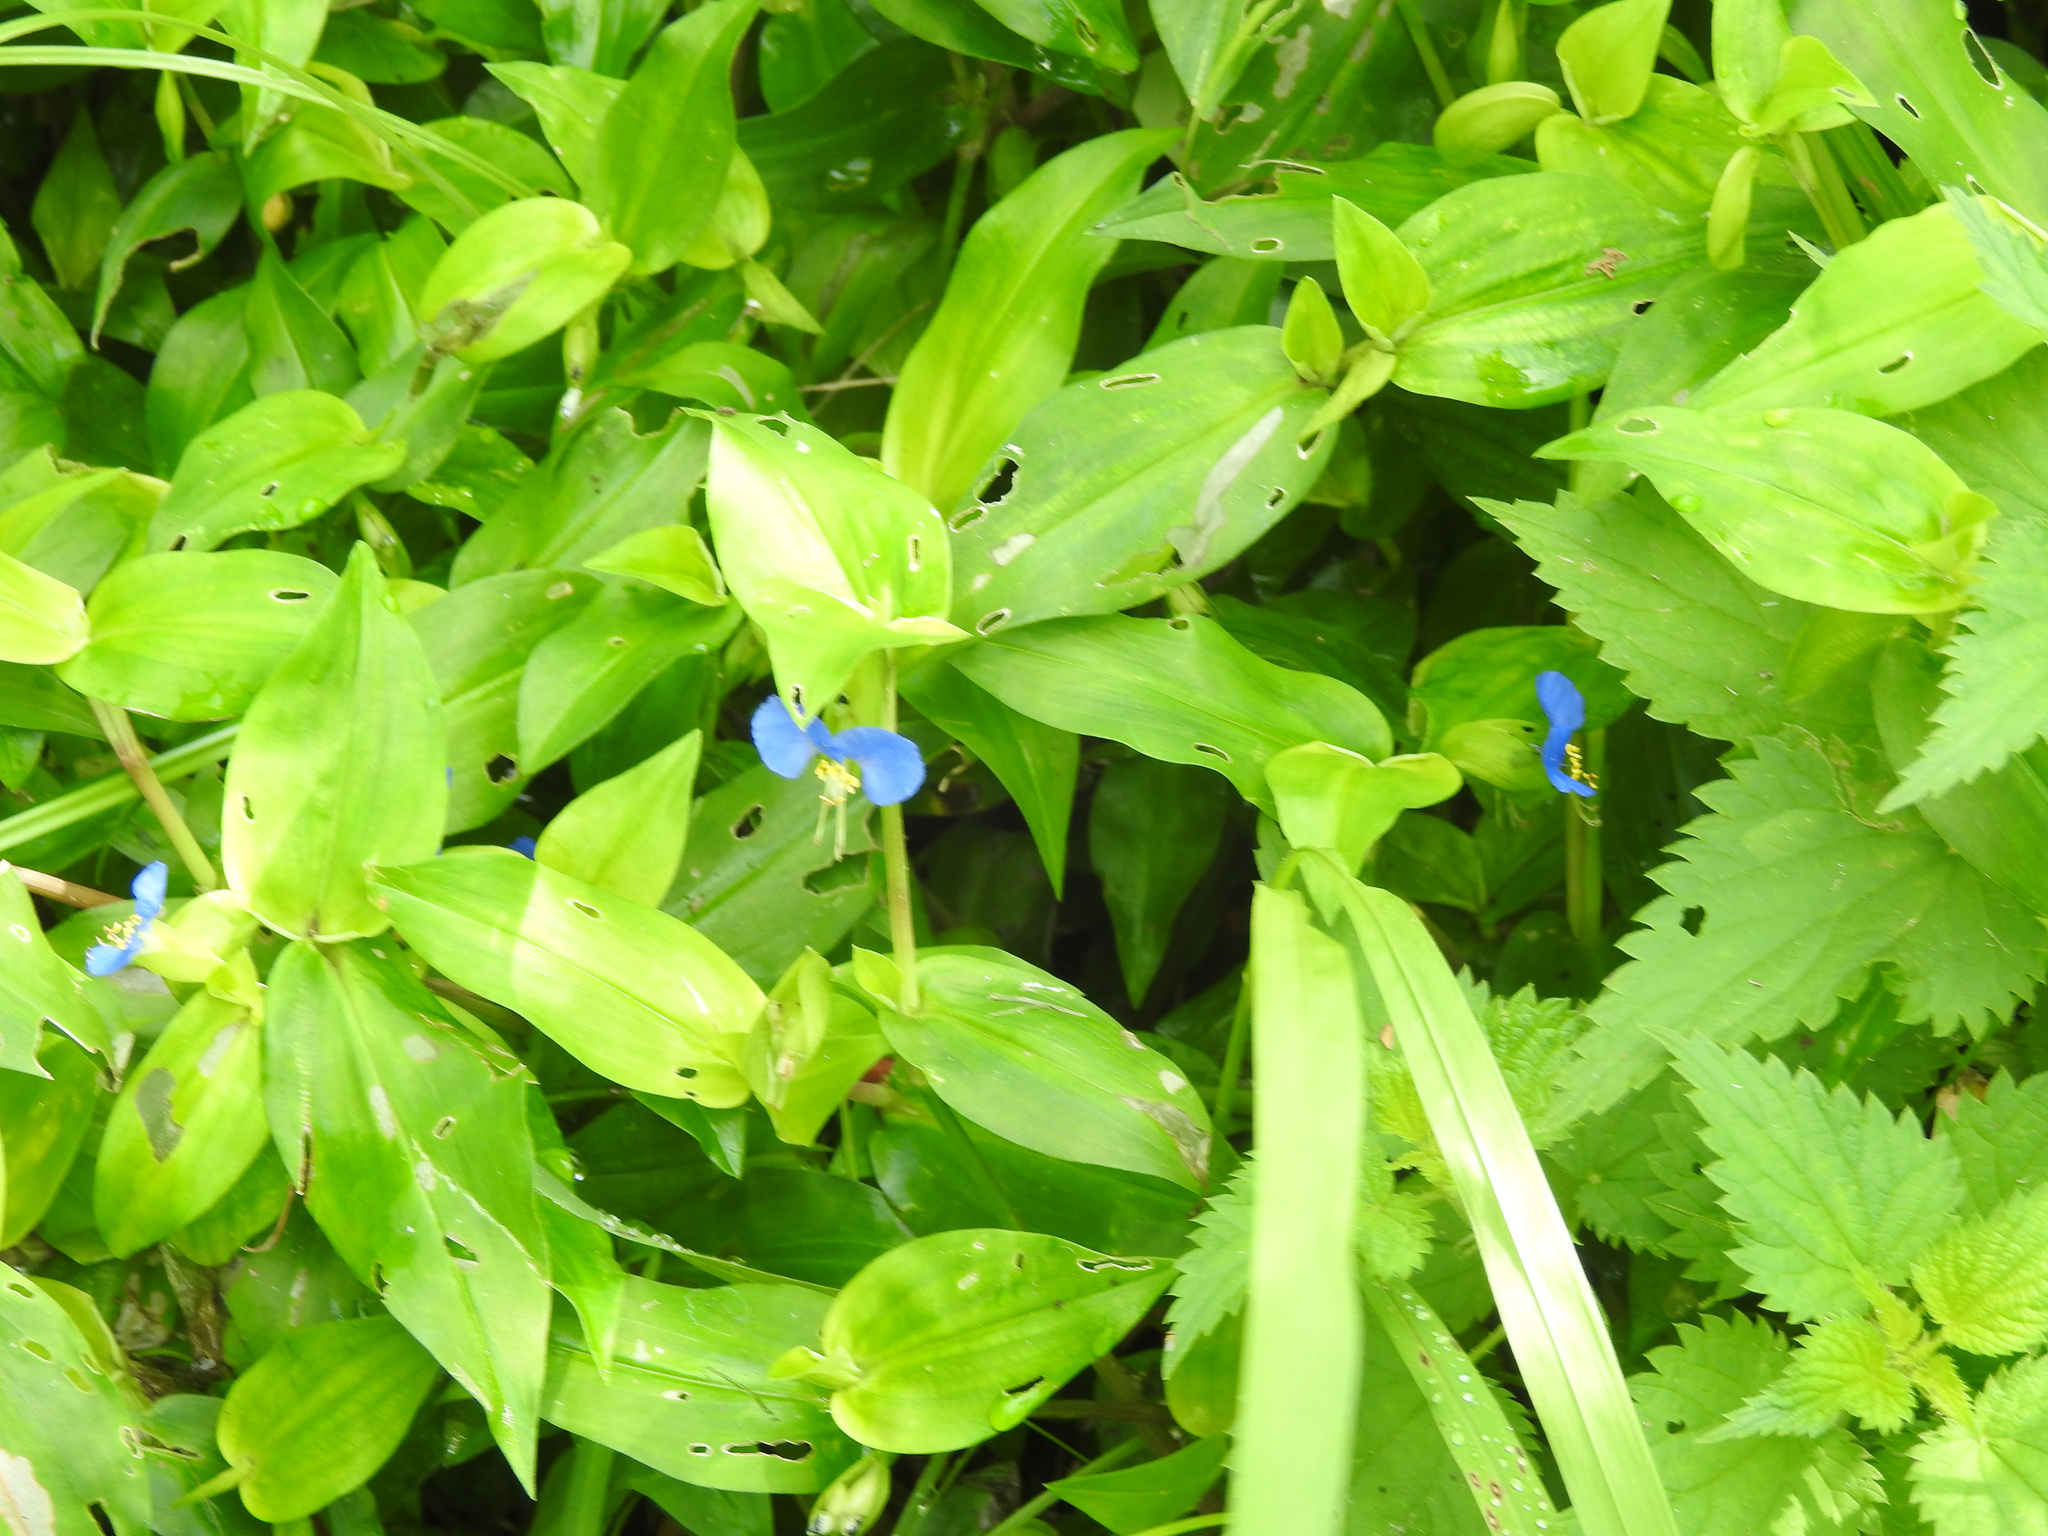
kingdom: Plantae
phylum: Tracheophyta
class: Liliopsida
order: Commelinales
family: Commelinaceae
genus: Commelina
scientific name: Commelina communis
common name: Asiatic dayflower
